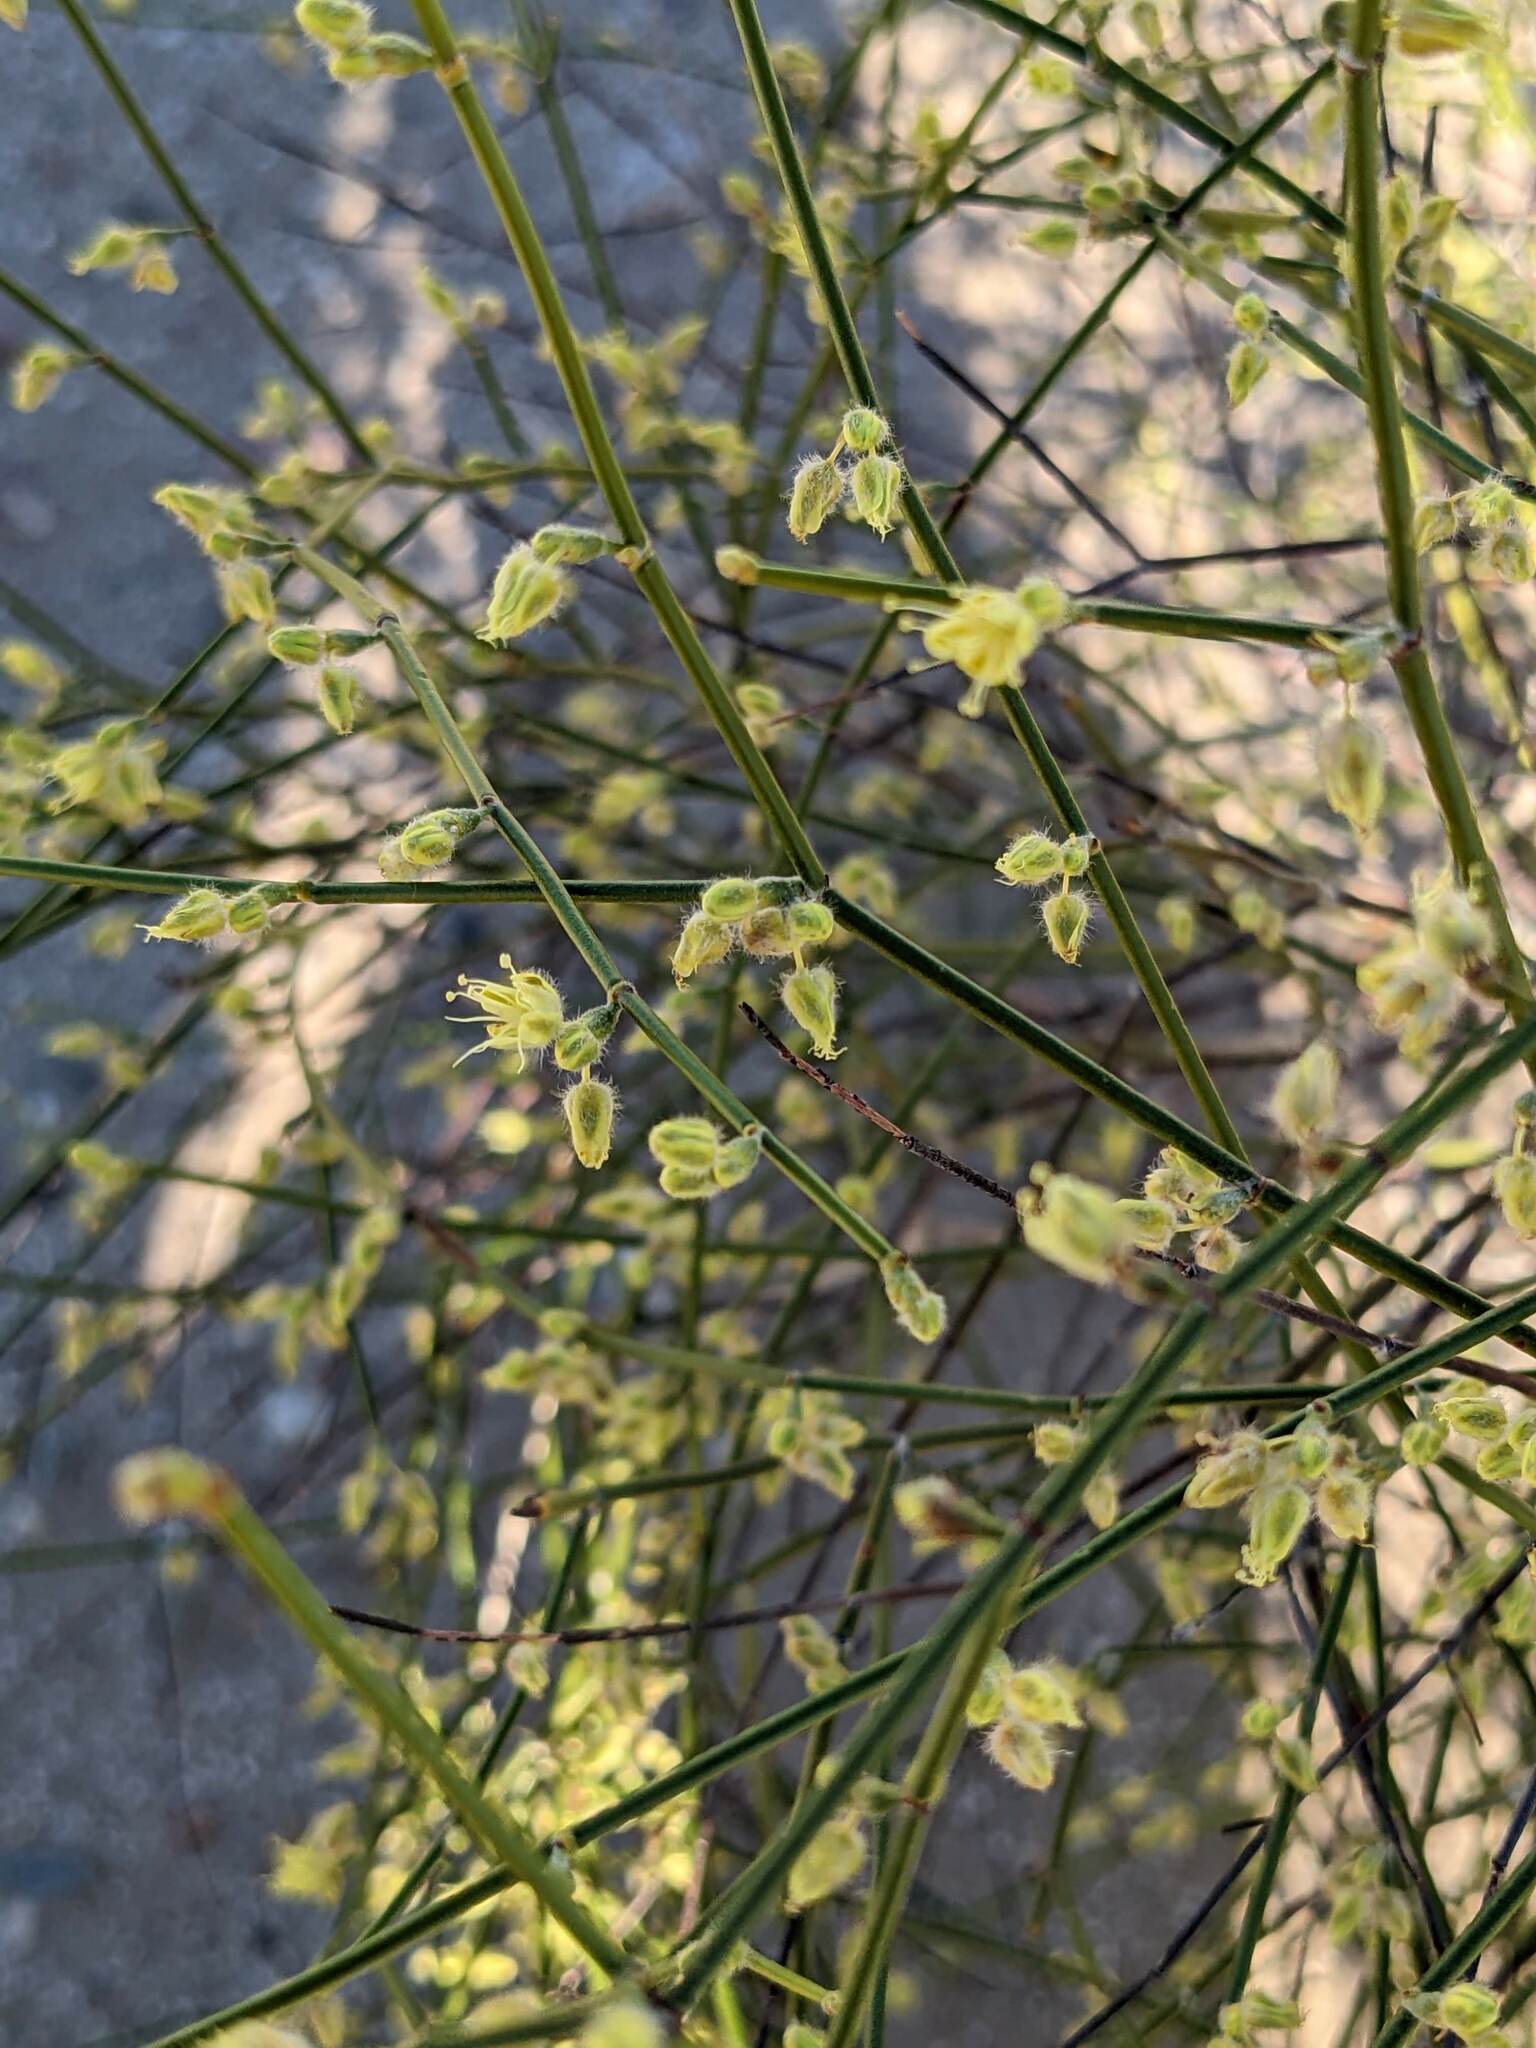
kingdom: Plantae
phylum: Tracheophyta
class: Magnoliopsida
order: Caryophyllales
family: Polygonaceae
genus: Eriogonum
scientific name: Eriogonum deserticola
